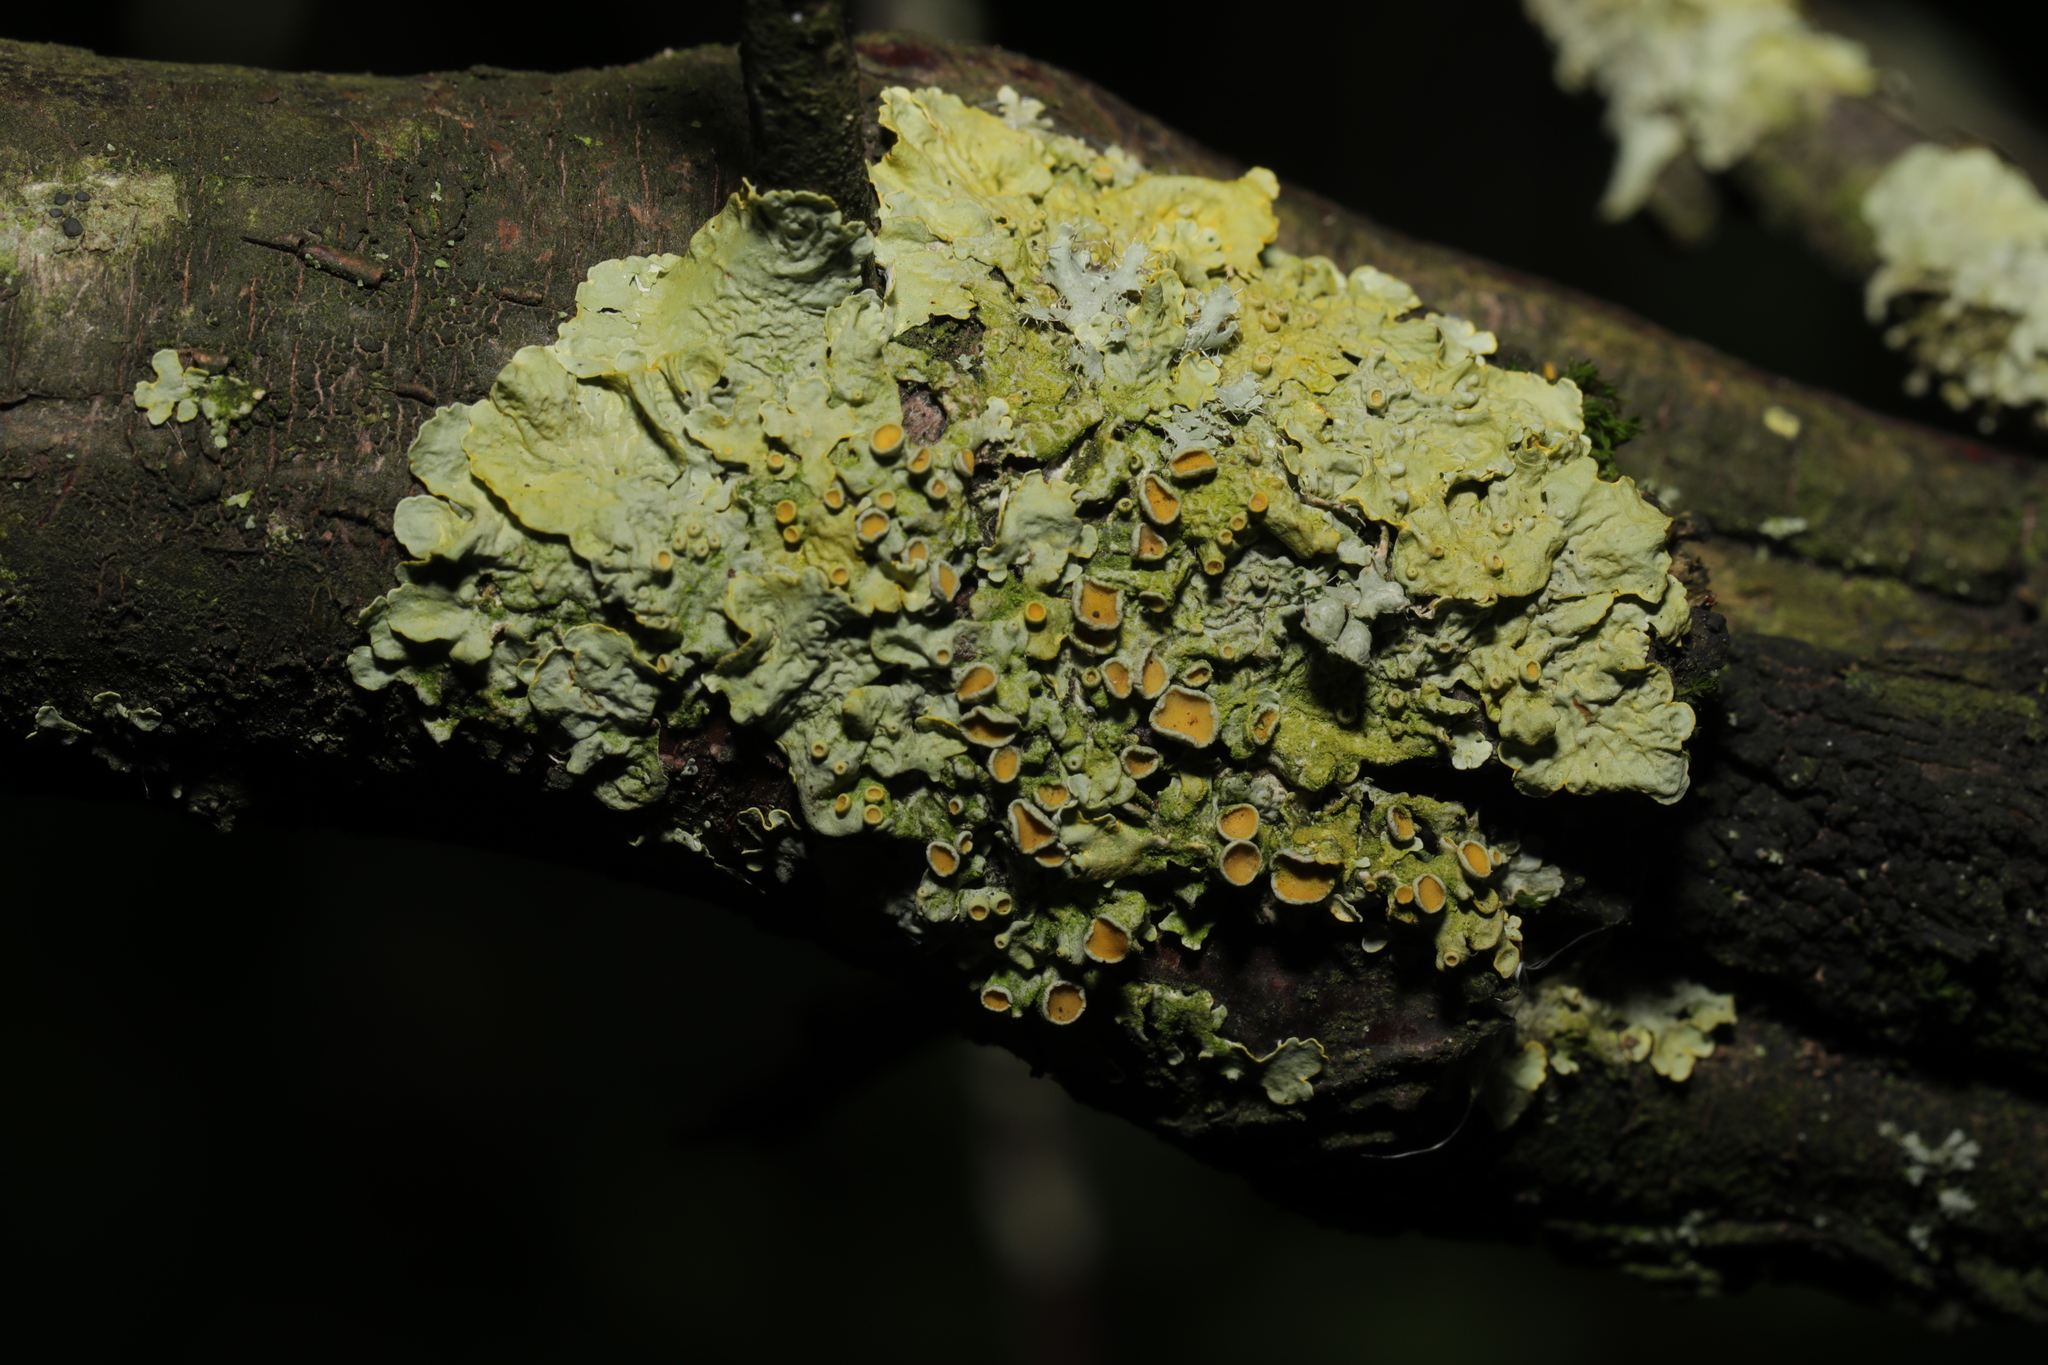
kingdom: Fungi
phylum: Ascomycota
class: Lecanoromycetes
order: Teloschistales
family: Teloschistaceae
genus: Xanthoria
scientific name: Xanthoria parietina
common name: Common orange lichen
